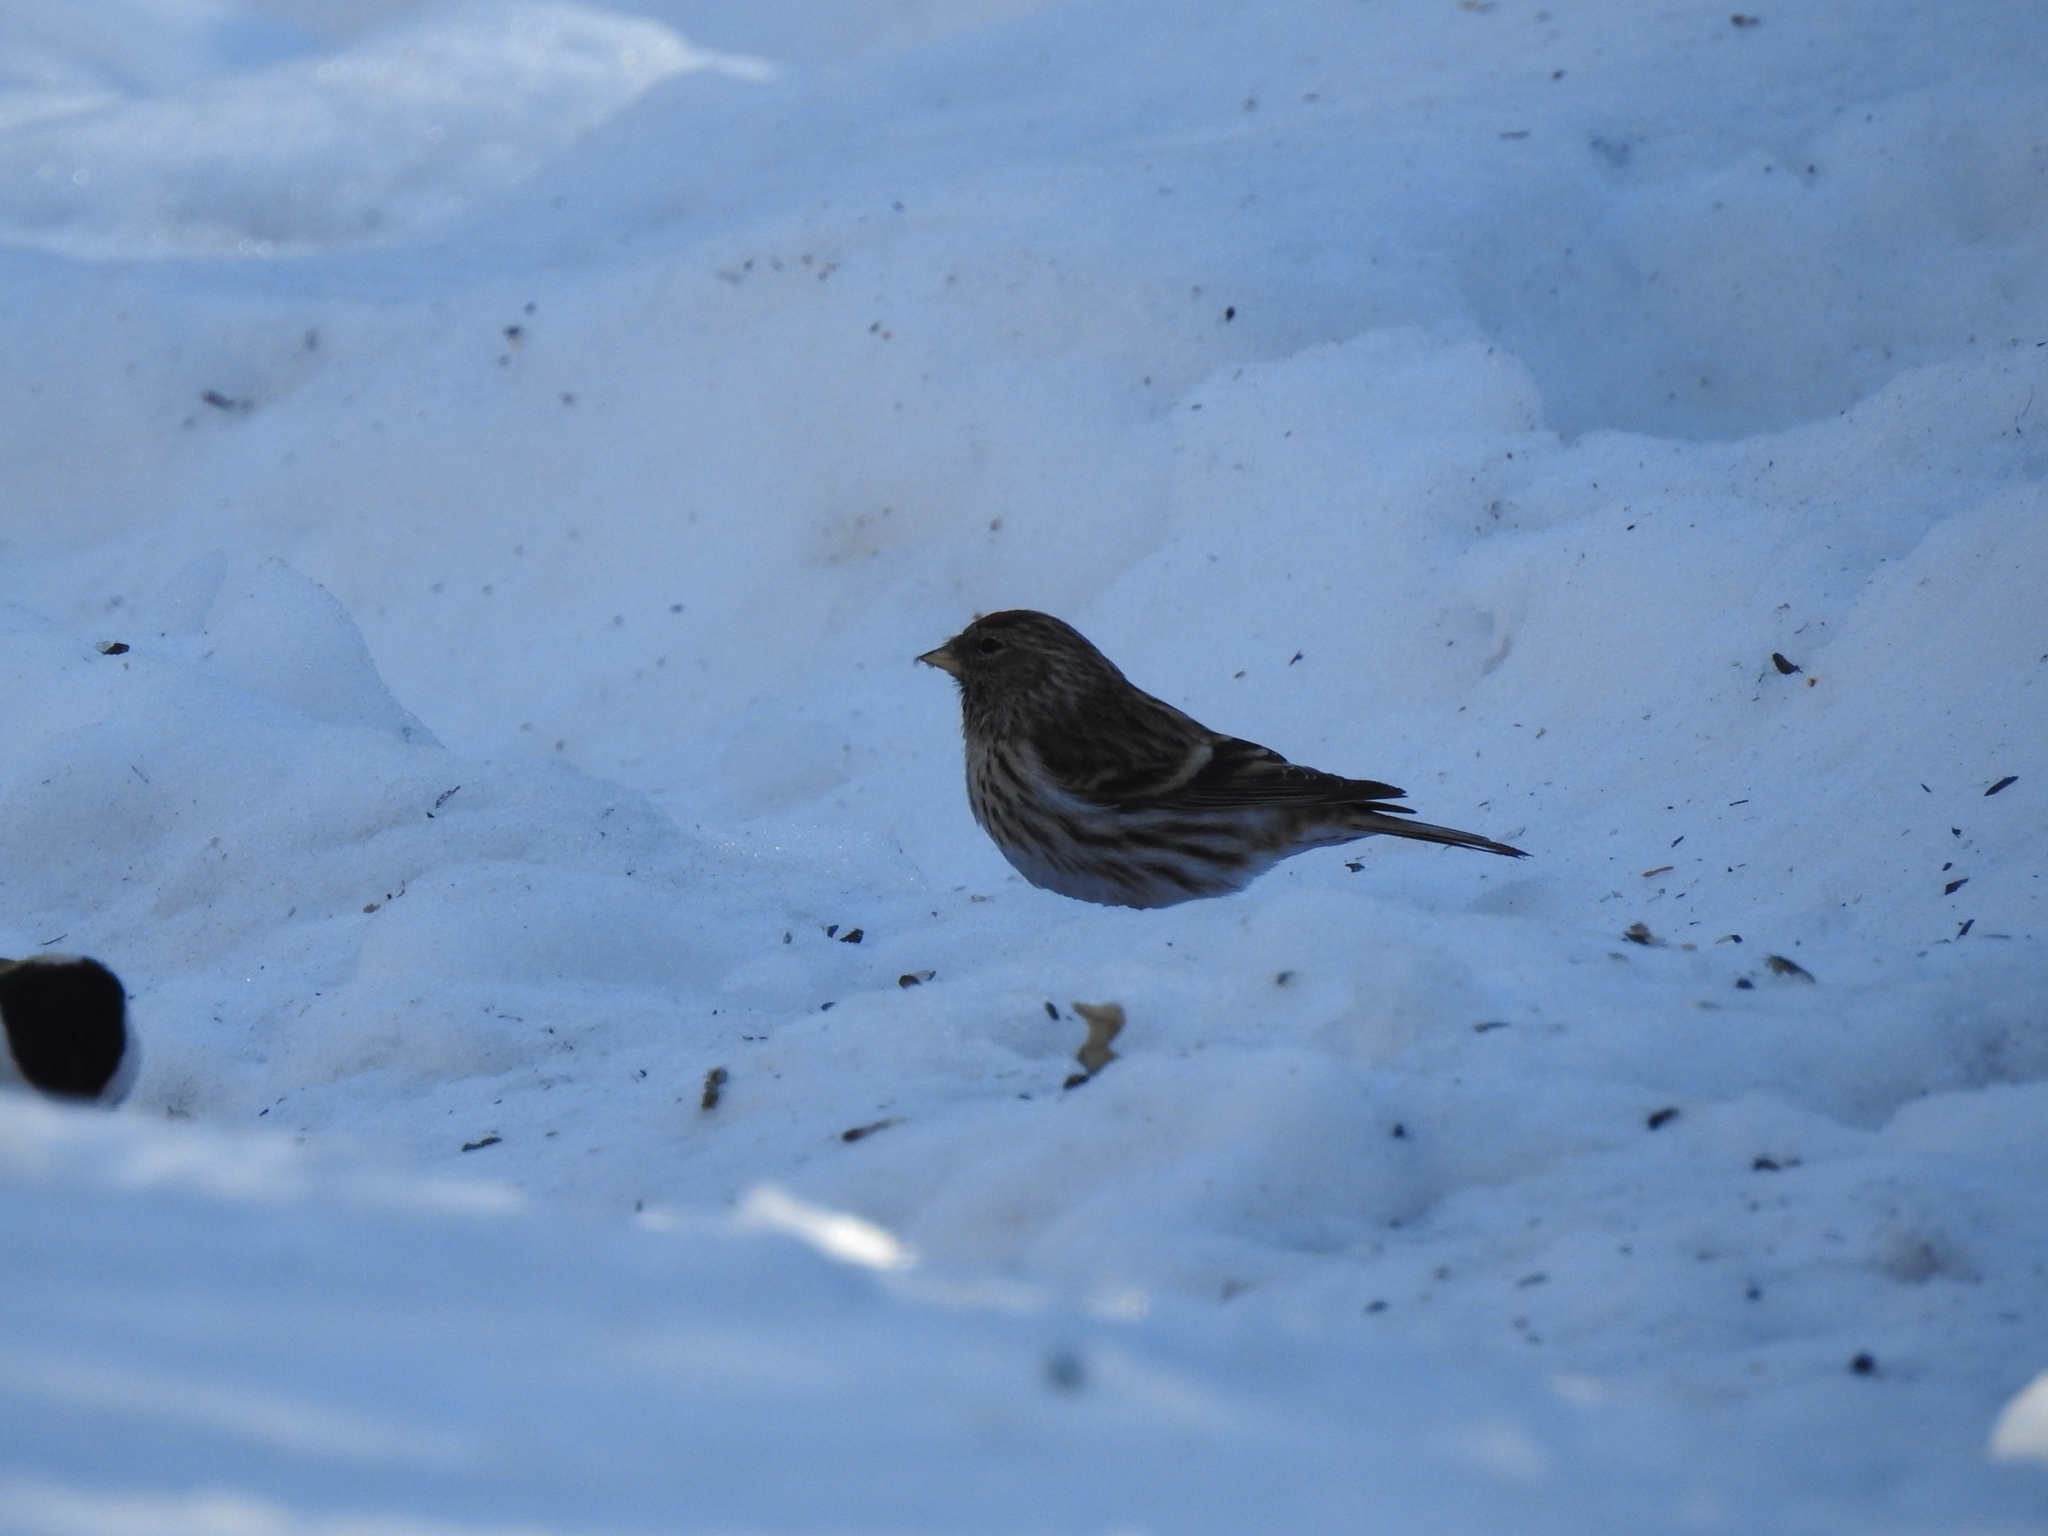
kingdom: Animalia
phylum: Chordata
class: Aves
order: Passeriformes
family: Fringillidae
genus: Acanthis
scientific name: Acanthis flammea
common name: Common redpoll
